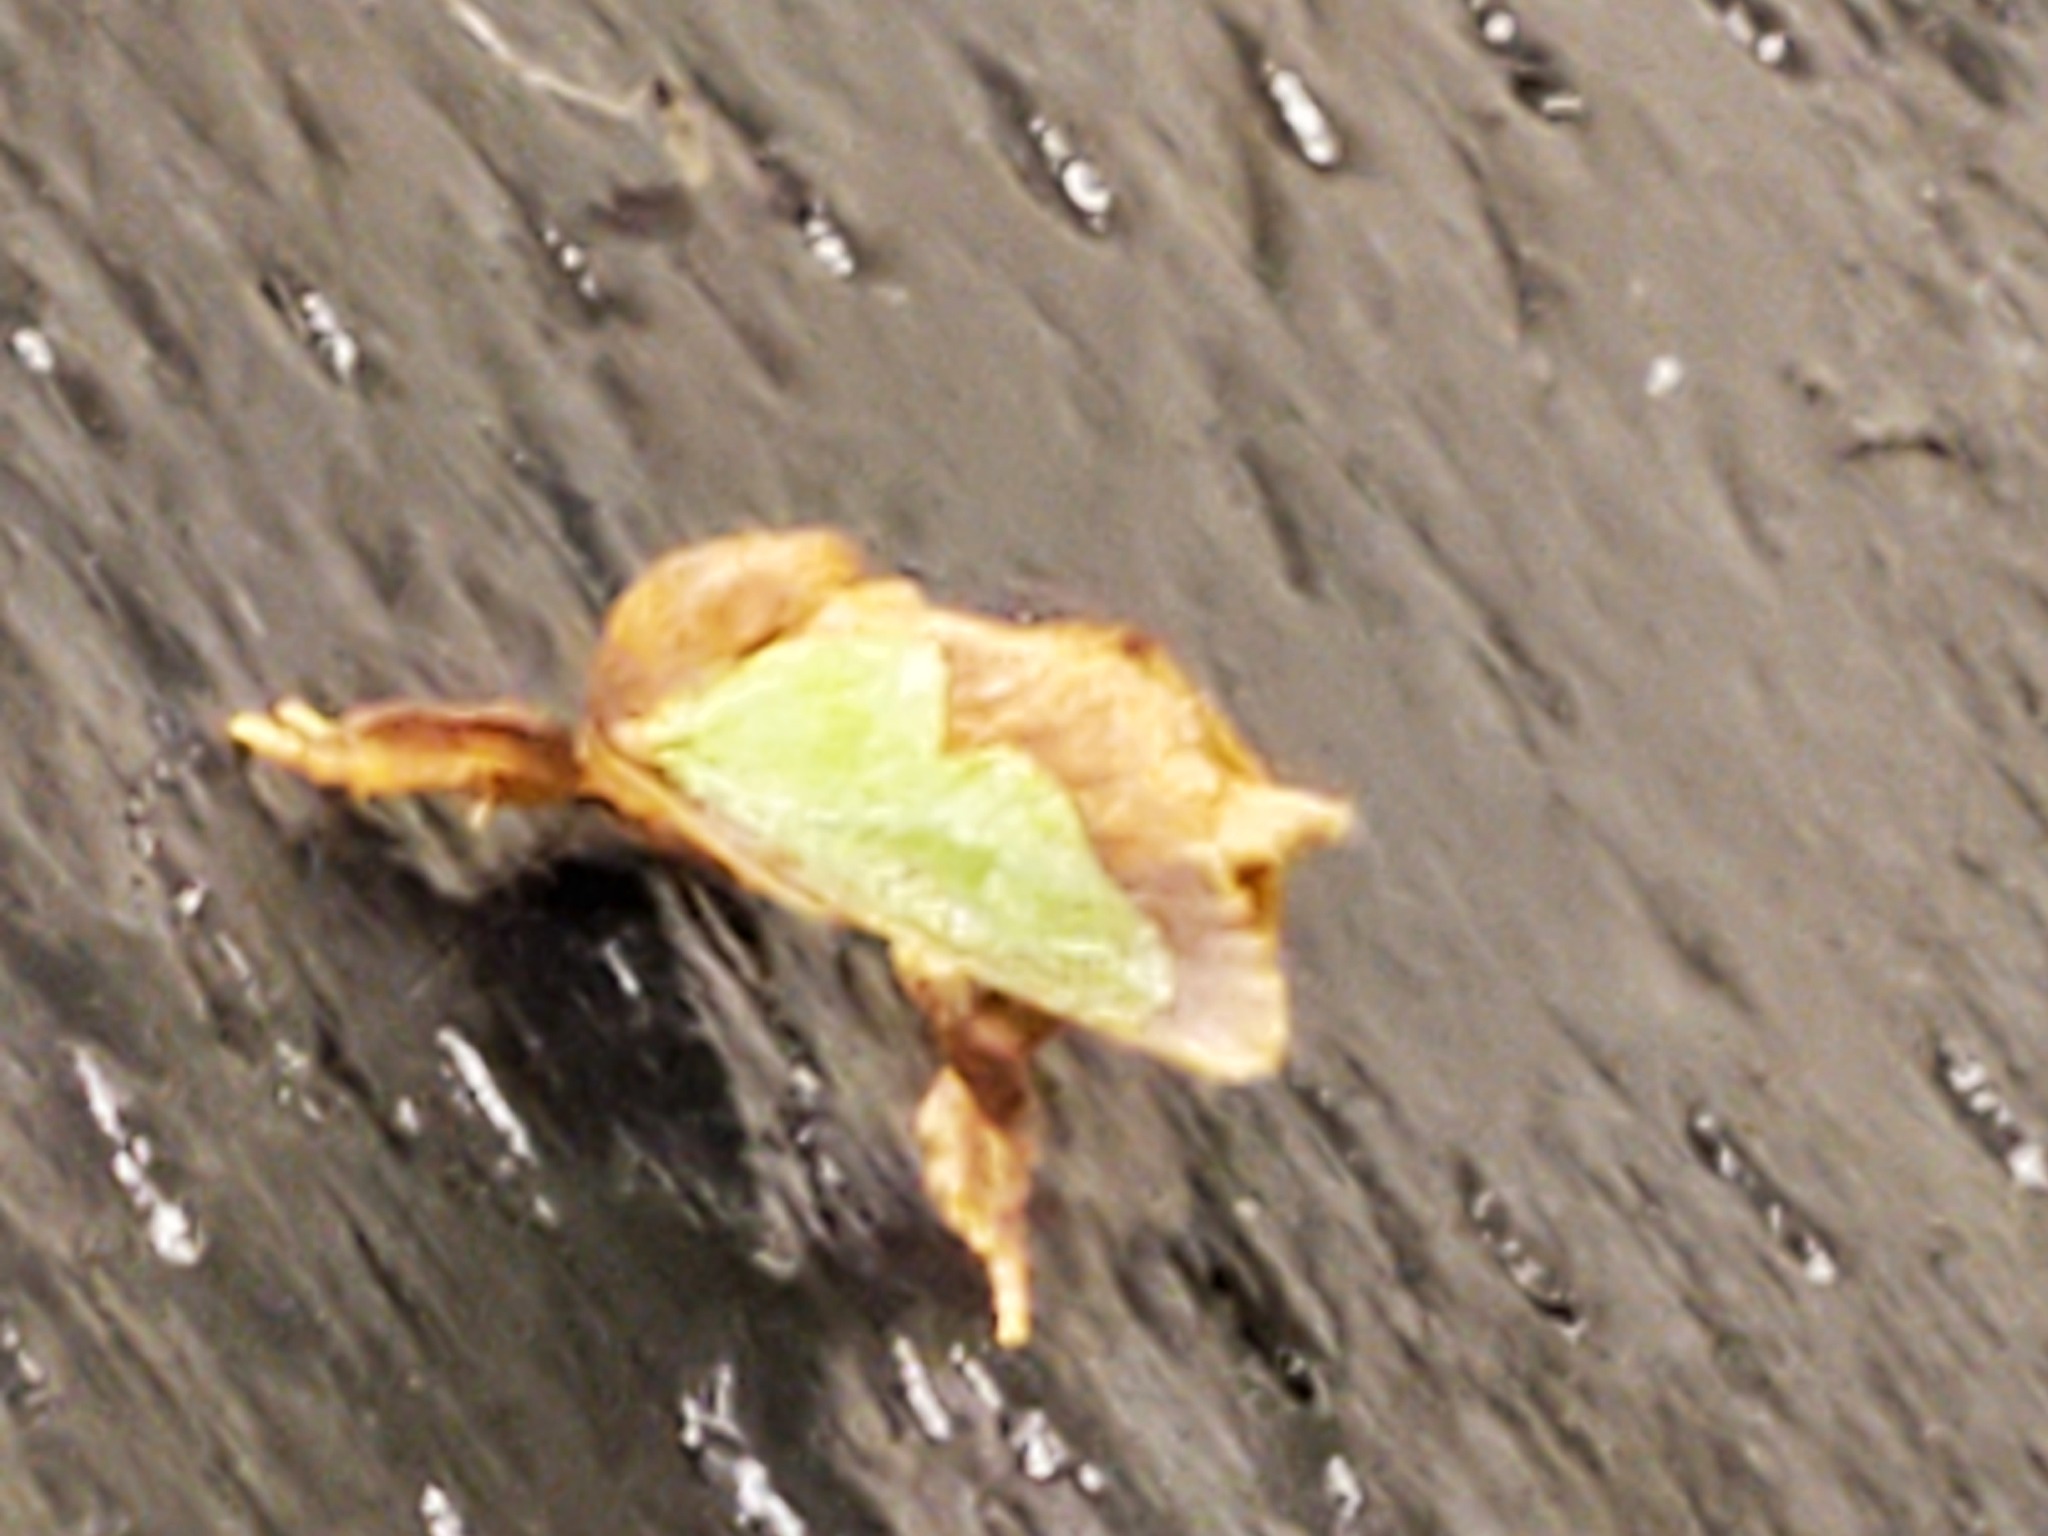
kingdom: Animalia
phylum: Arthropoda
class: Insecta
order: Lepidoptera
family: Limacodidae
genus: Euclea
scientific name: Euclea incisa
